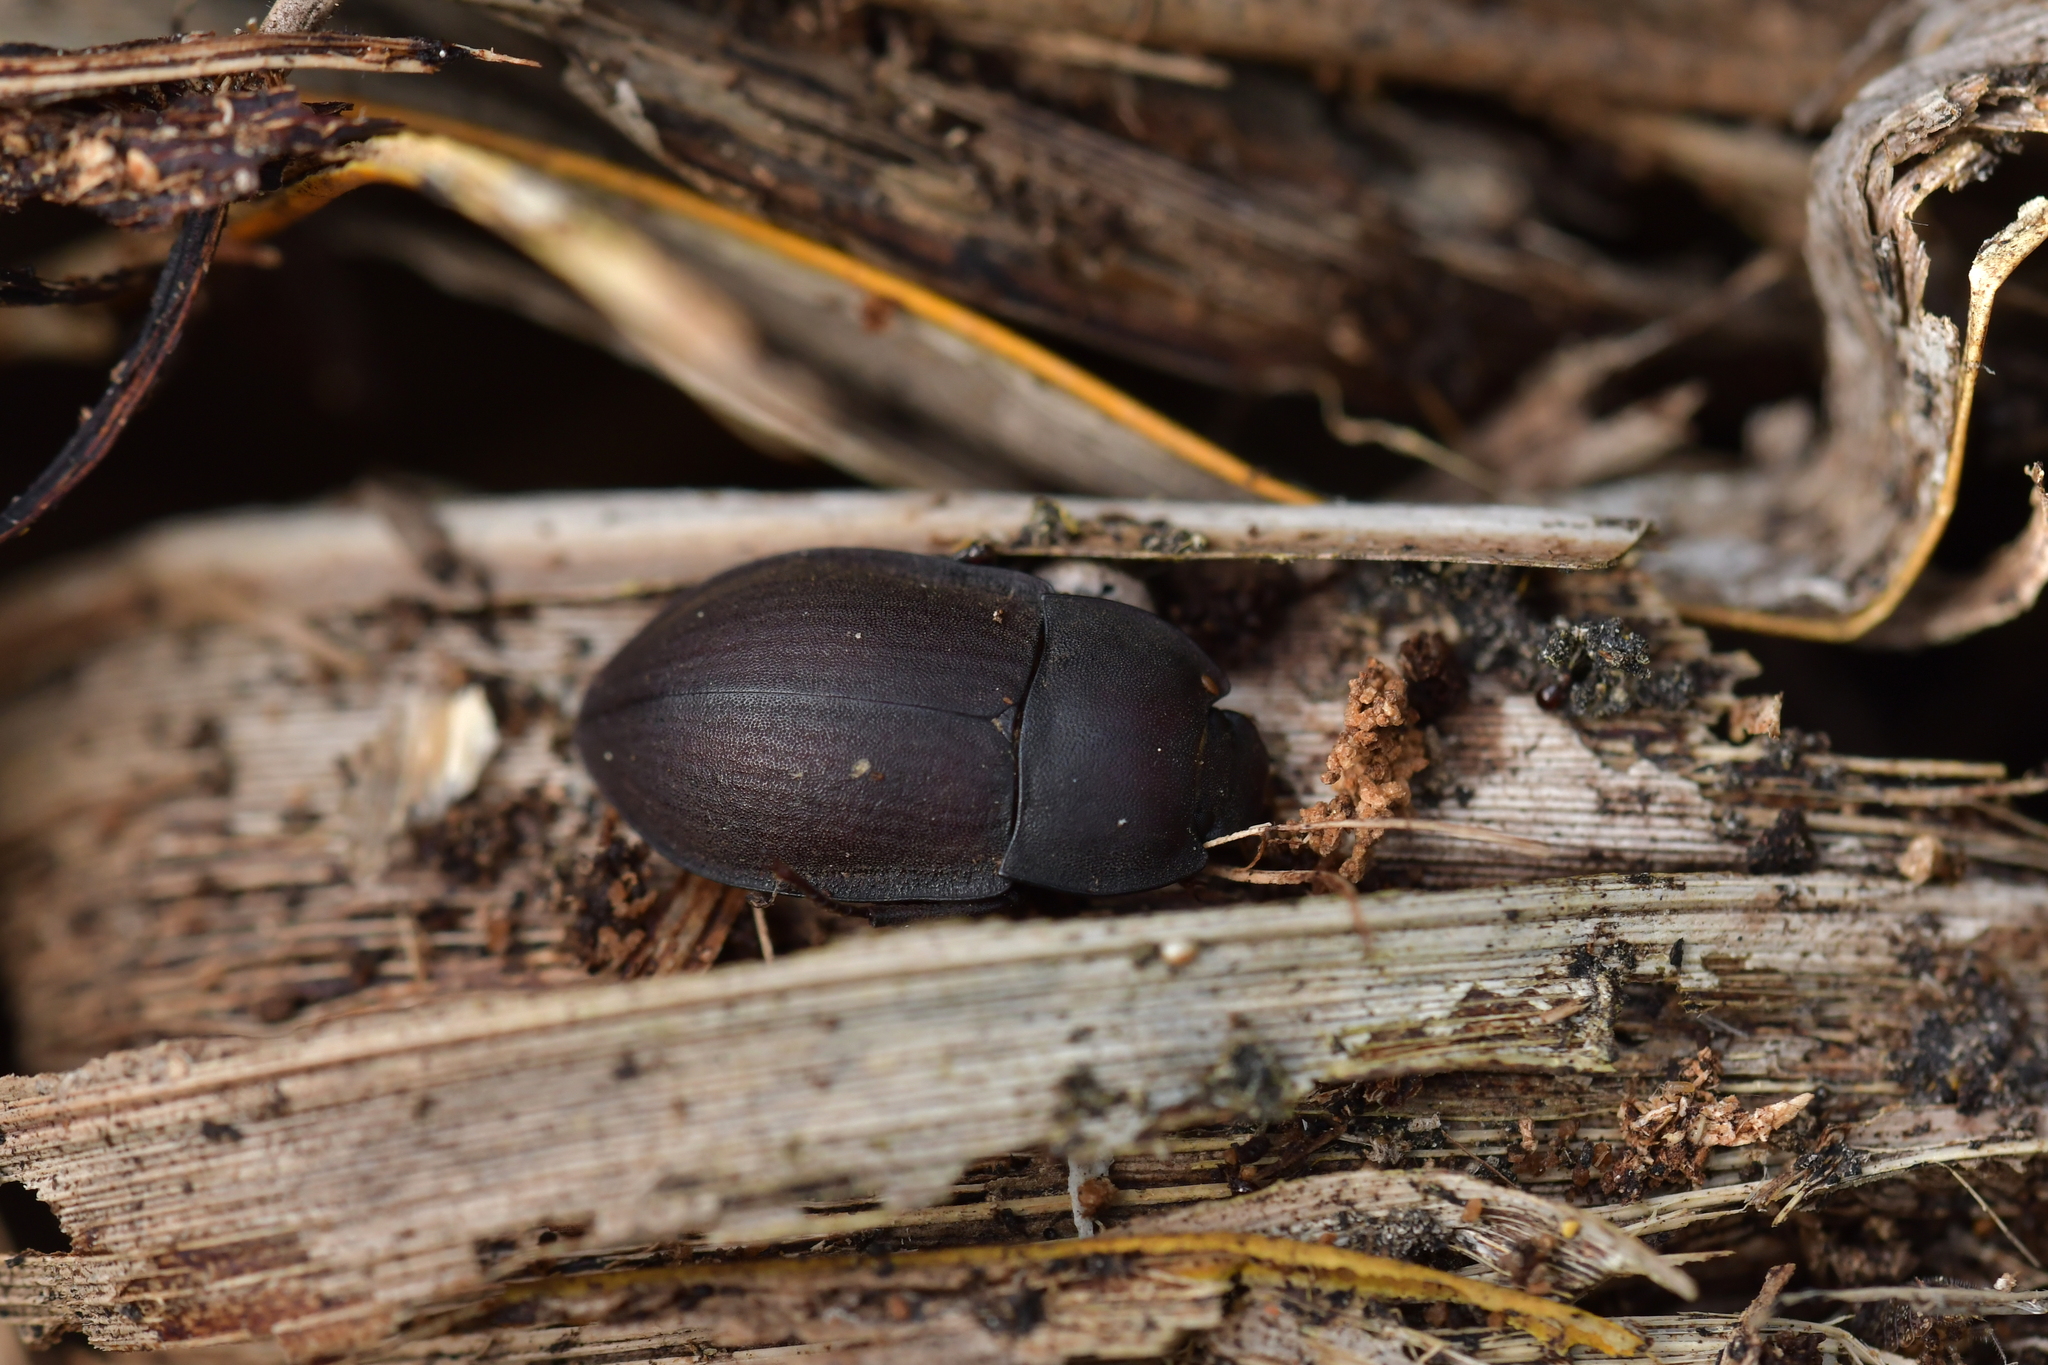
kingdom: Animalia
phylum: Arthropoda
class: Insecta
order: Coleoptera
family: Tenebrionidae
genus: Mimopeus
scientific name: Mimopeus
